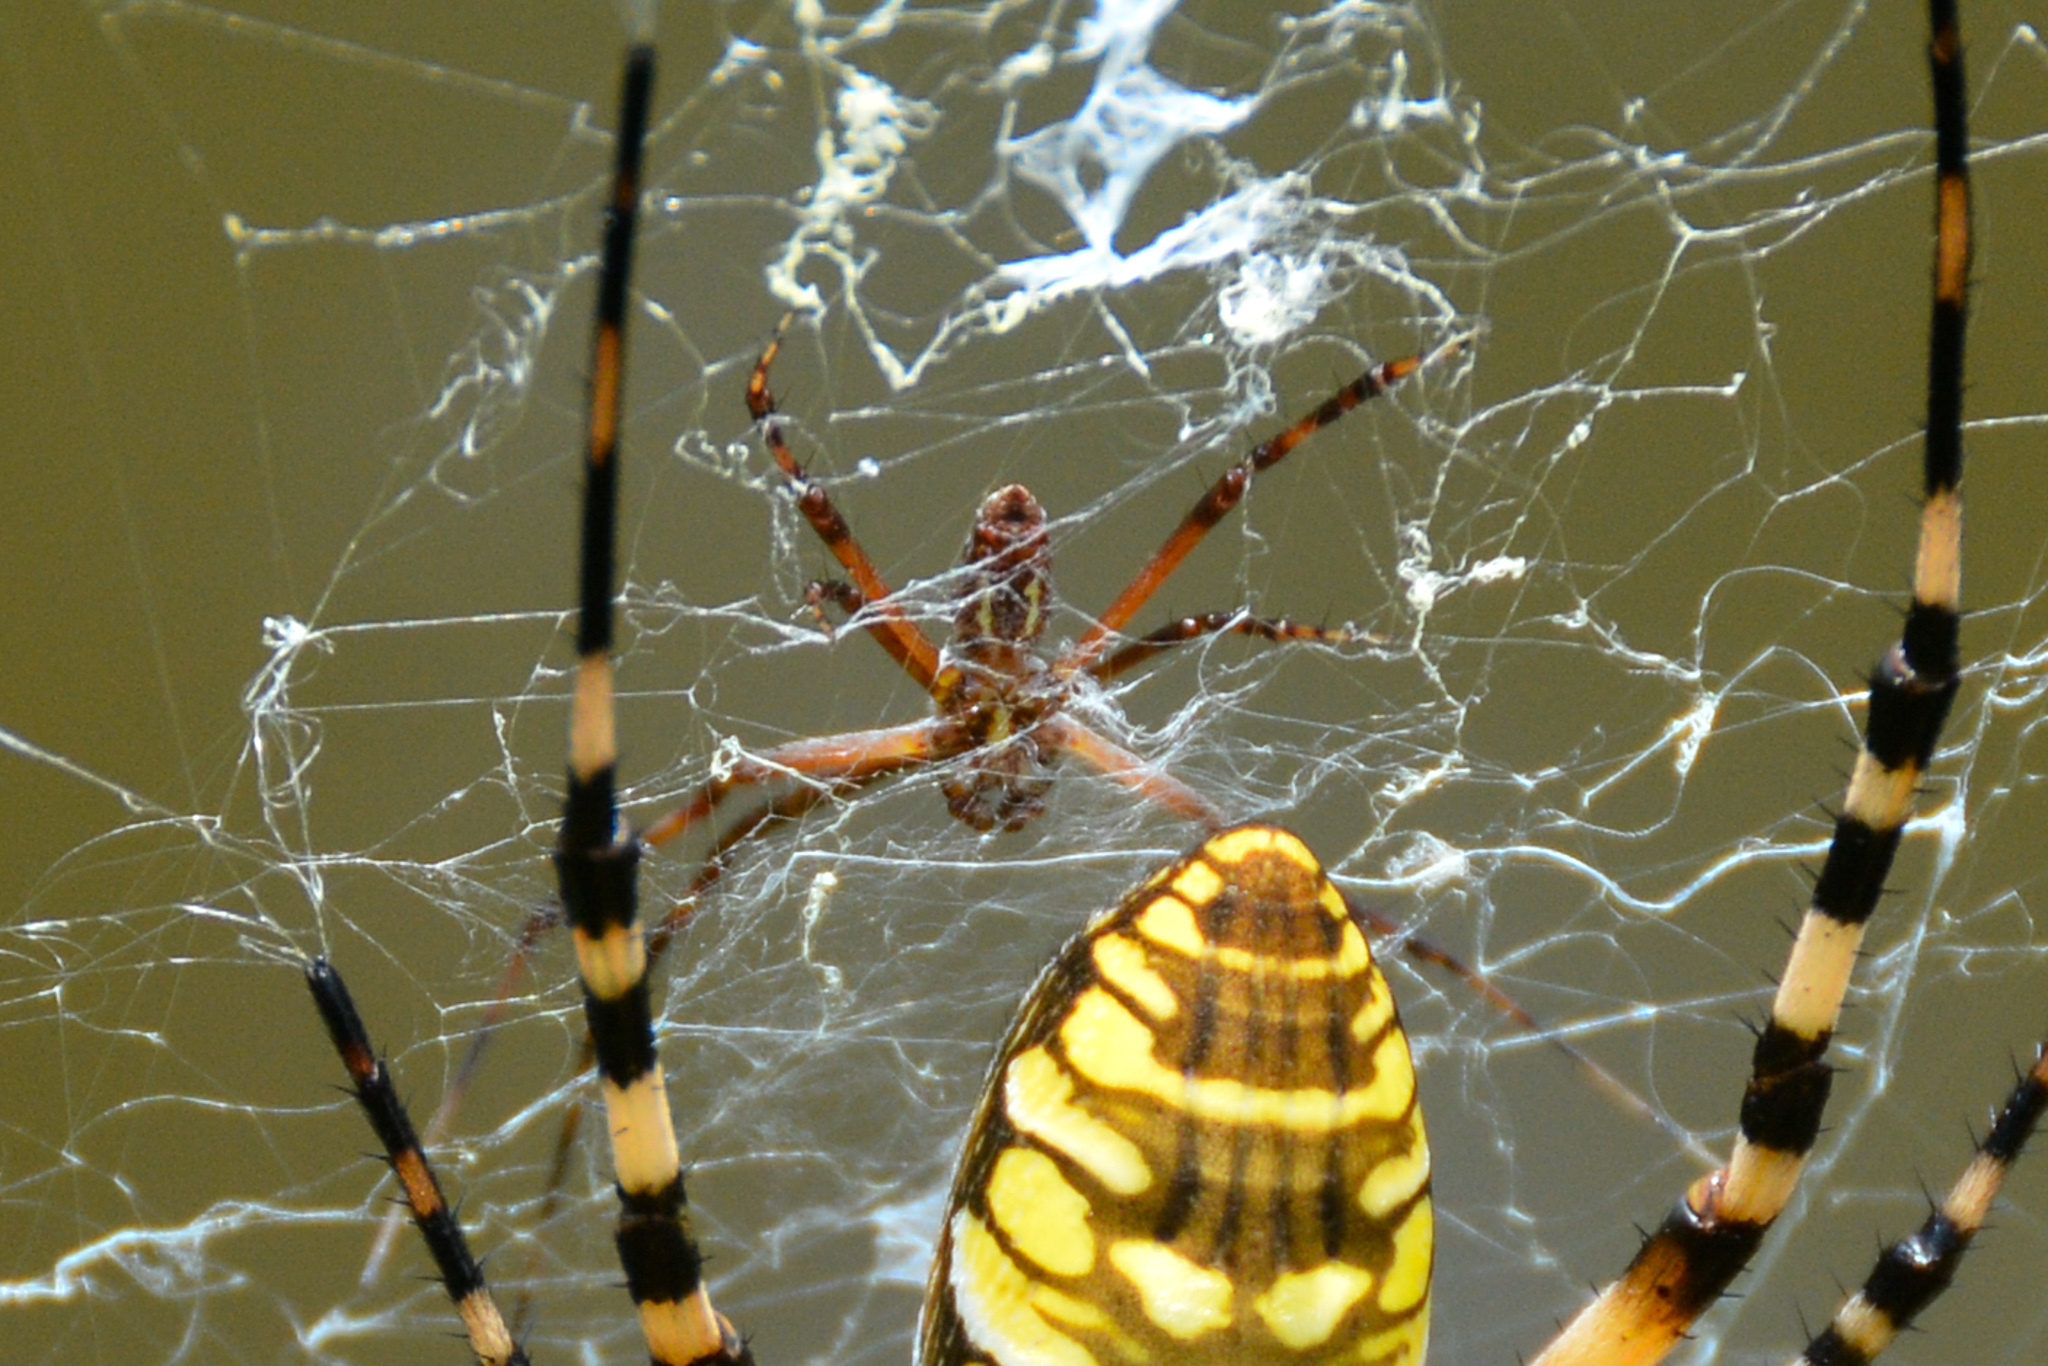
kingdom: Animalia
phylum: Arthropoda
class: Arachnida
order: Araneae
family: Araneidae
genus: Argiope
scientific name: Argiope aurantia
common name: Orb weavers
